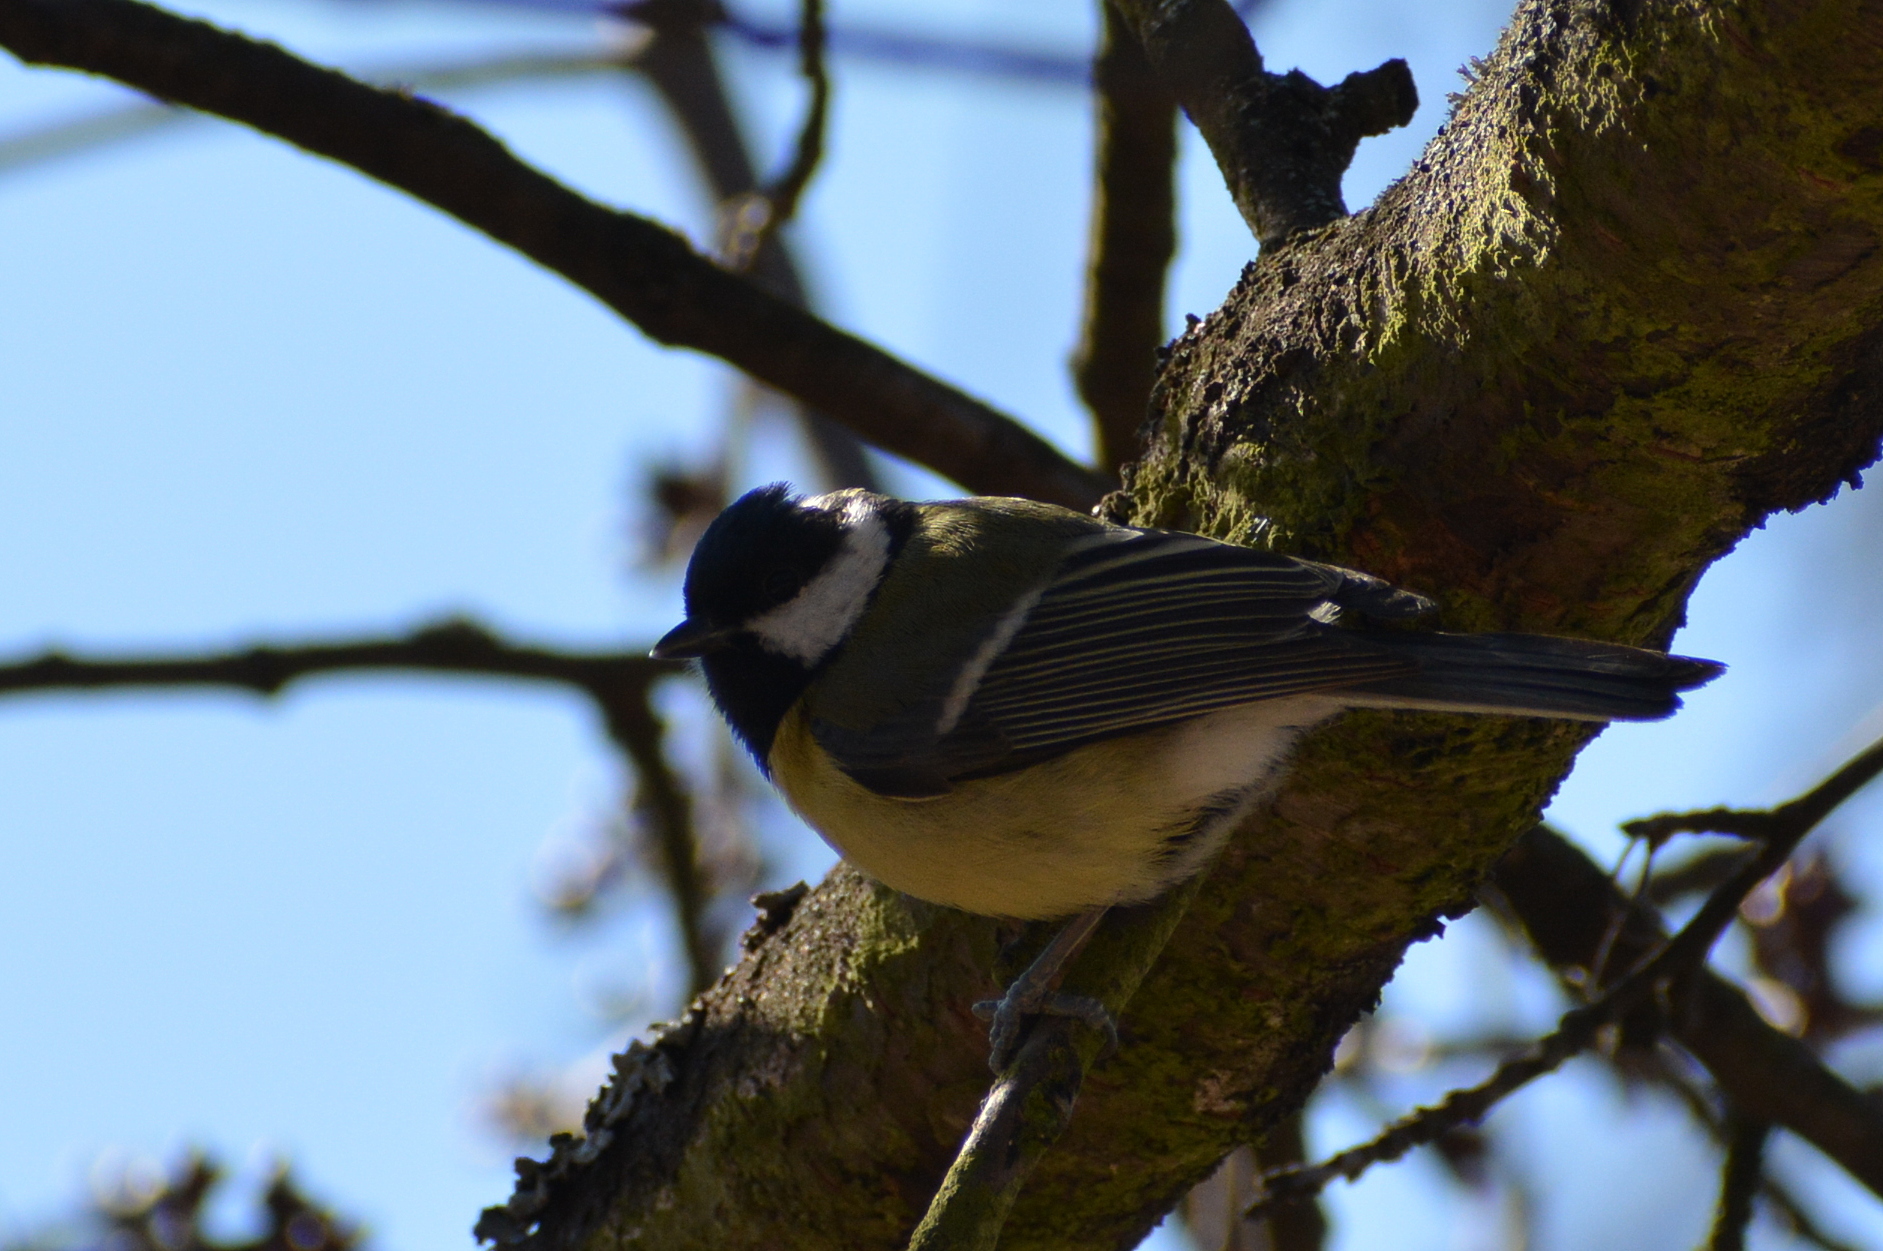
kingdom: Animalia
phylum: Chordata
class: Aves
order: Passeriformes
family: Paridae
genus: Parus
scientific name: Parus major
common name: Great tit
